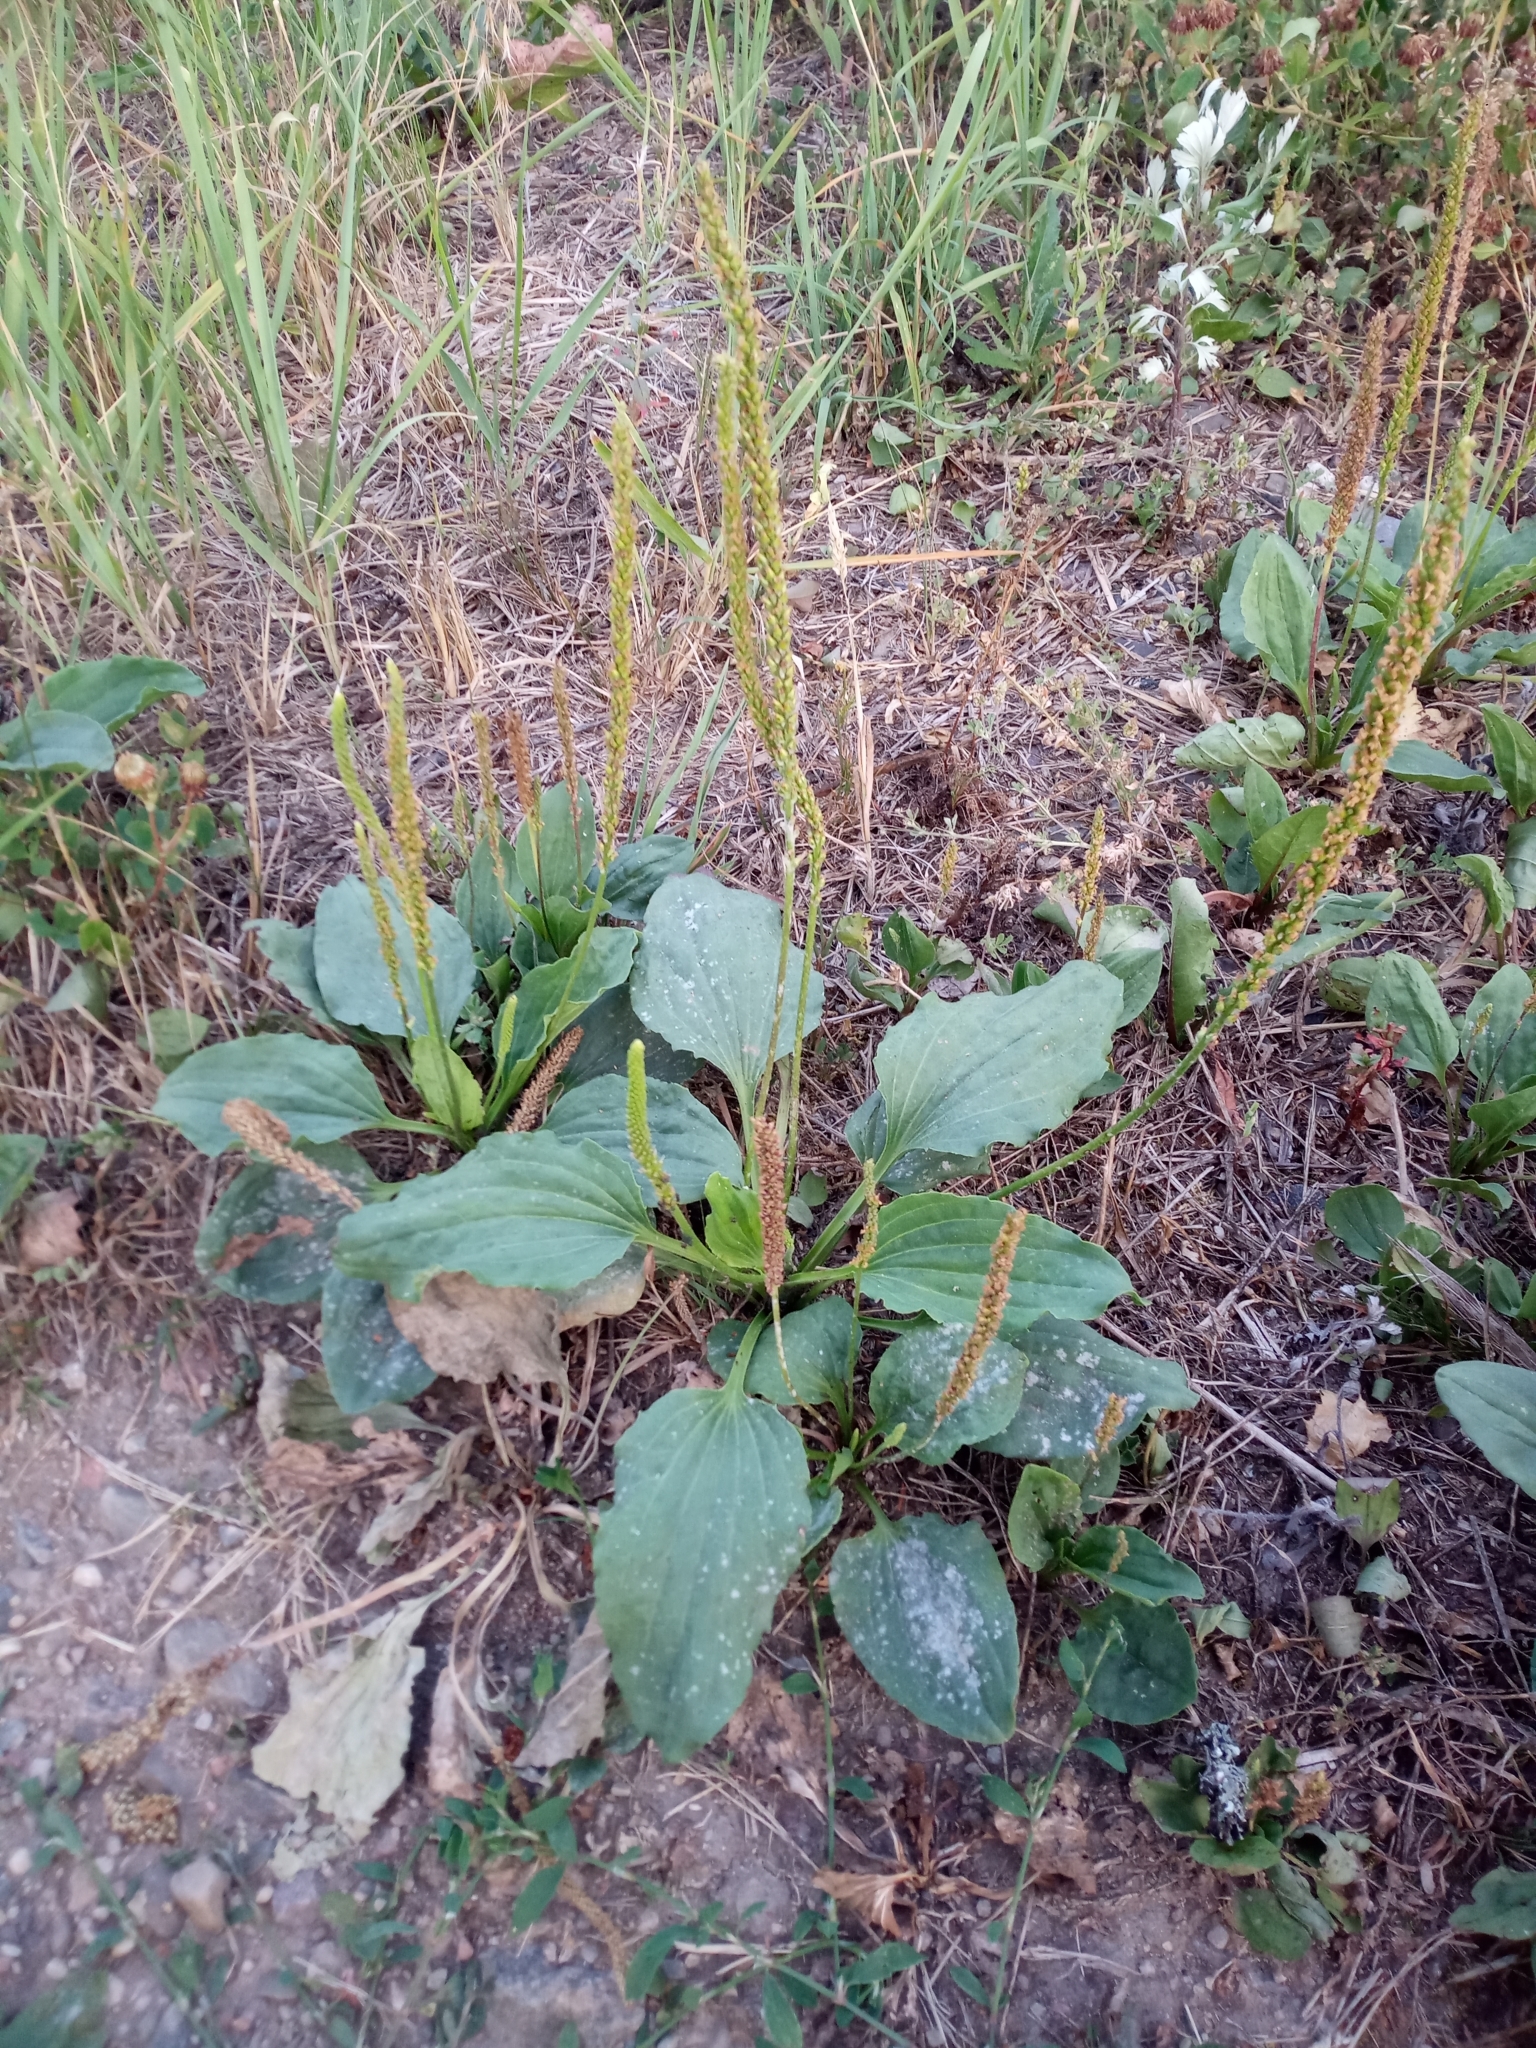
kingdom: Plantae
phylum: Tracheophyta
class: Magnoliopsida
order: Lamiales
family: Plantaginaceae
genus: Plantago
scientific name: Plantago major
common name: Common plantain
